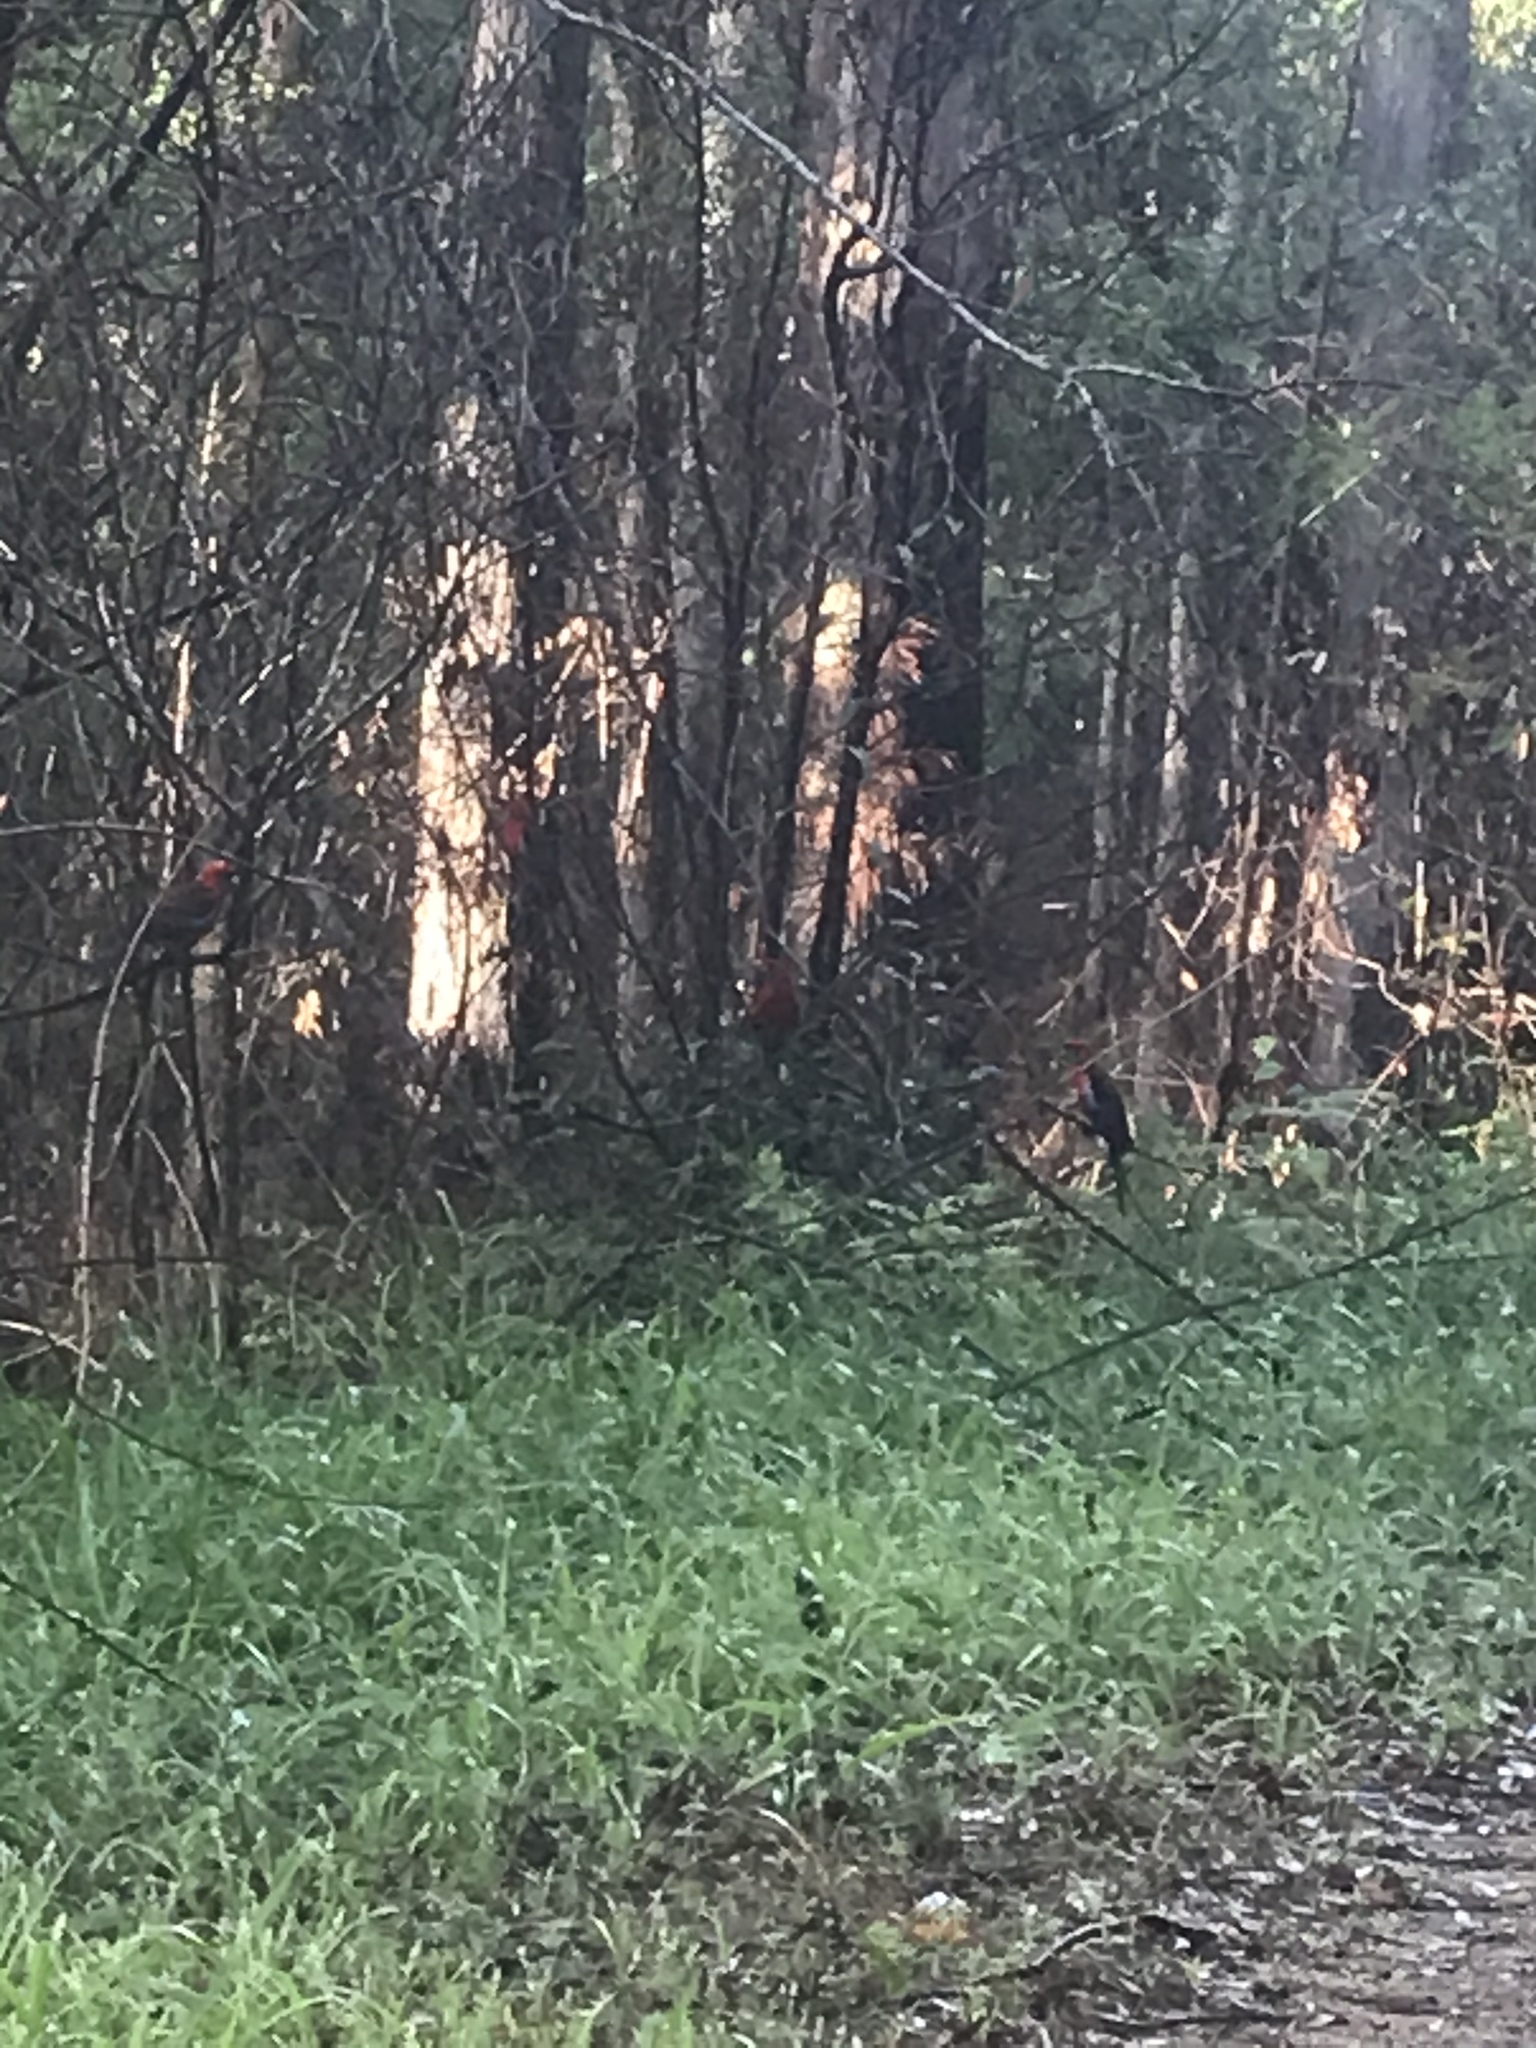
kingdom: Animalia
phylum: Chordata
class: Aves
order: Psittaciformes
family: Psittacidae
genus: Platycercus
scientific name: Platycercus elegans
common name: Crimson rosella
